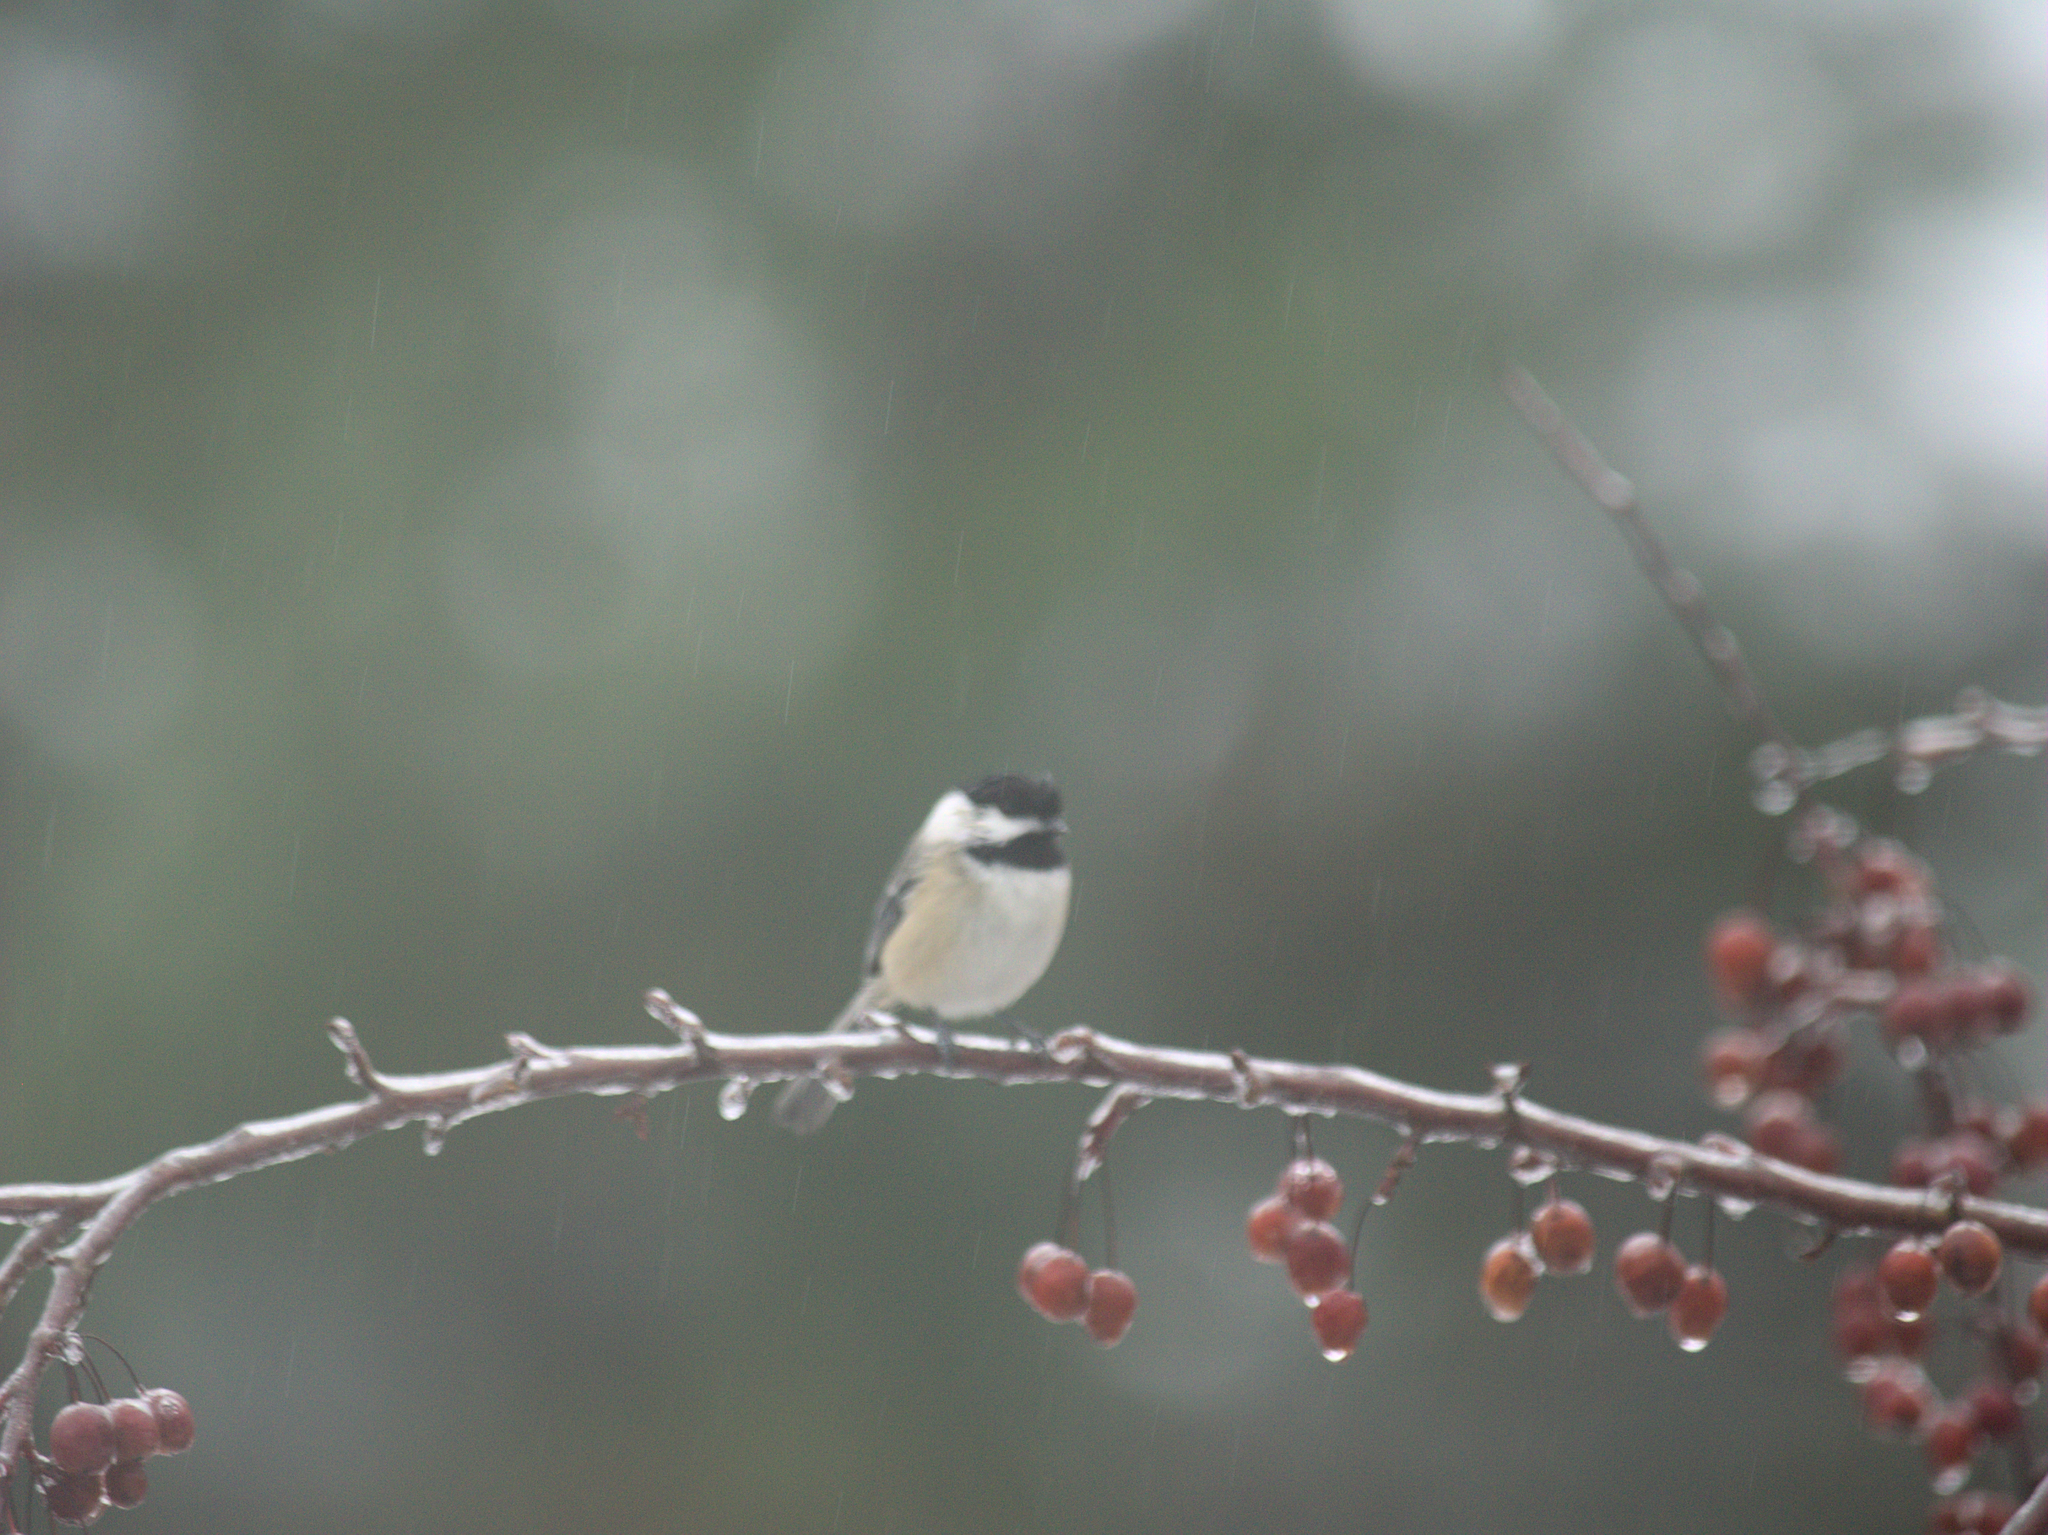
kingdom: Animalia
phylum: Chordata
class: Aves
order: Passeriformes
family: Paridae
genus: Poecile
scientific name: Poecile atricapillus
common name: Black-capped chickadee
